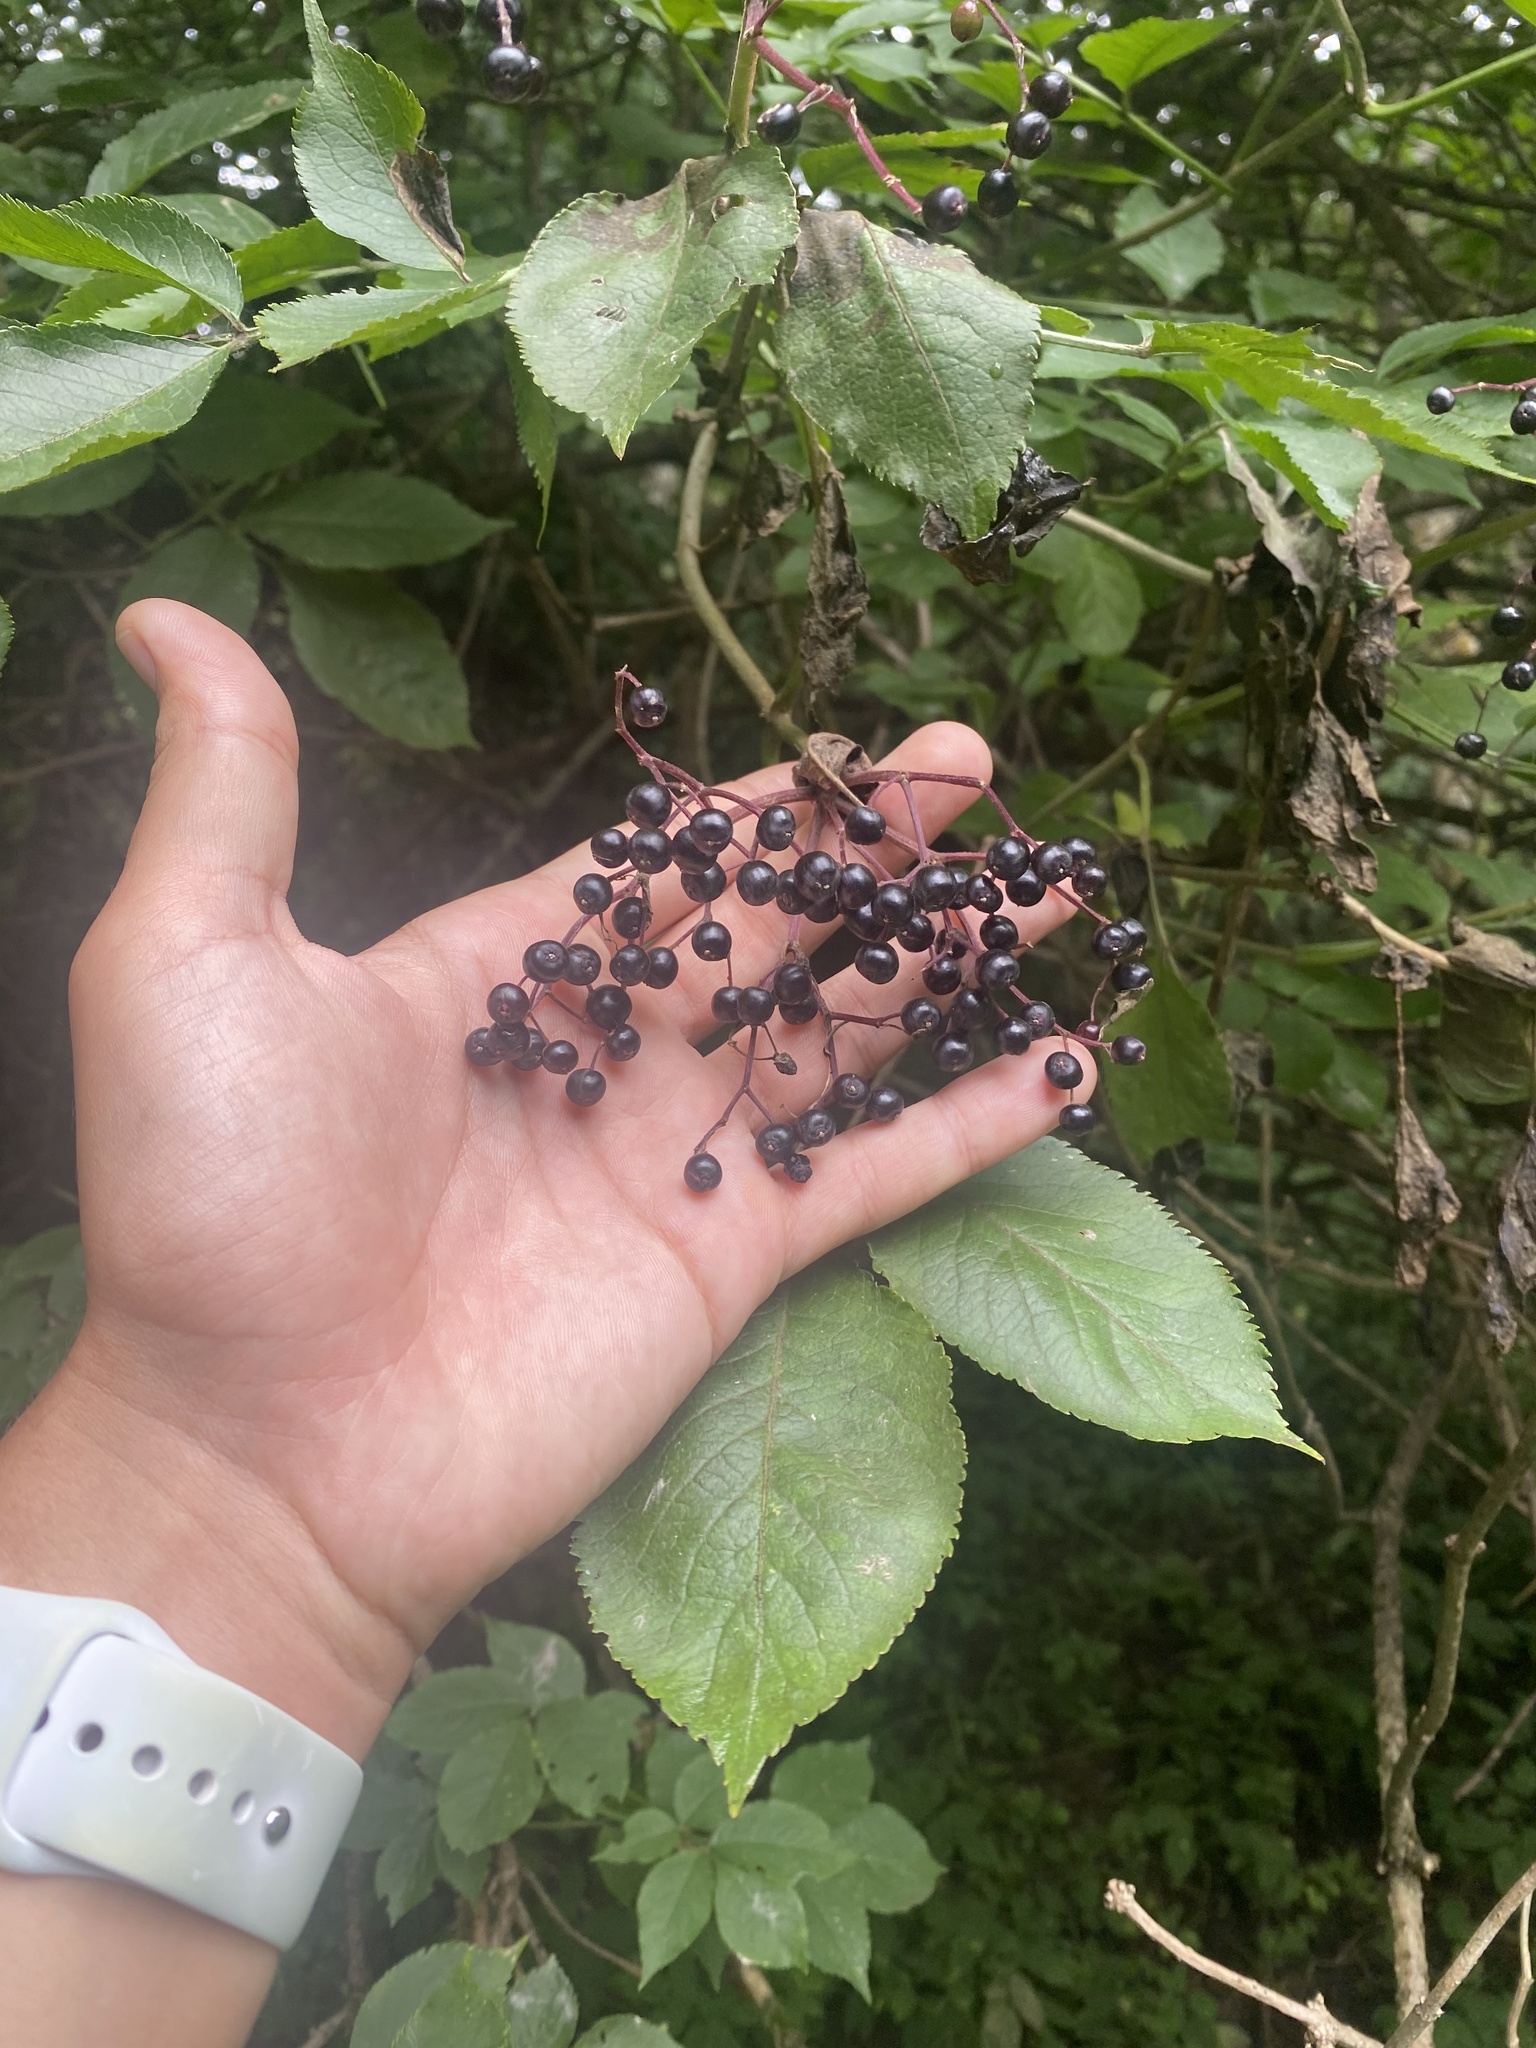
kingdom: Plantae
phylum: Tracheophyta
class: Magnoliopsida
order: Dipsacales
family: Viburnaceae
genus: Sambucus
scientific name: Sambucus nigra
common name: Elder
